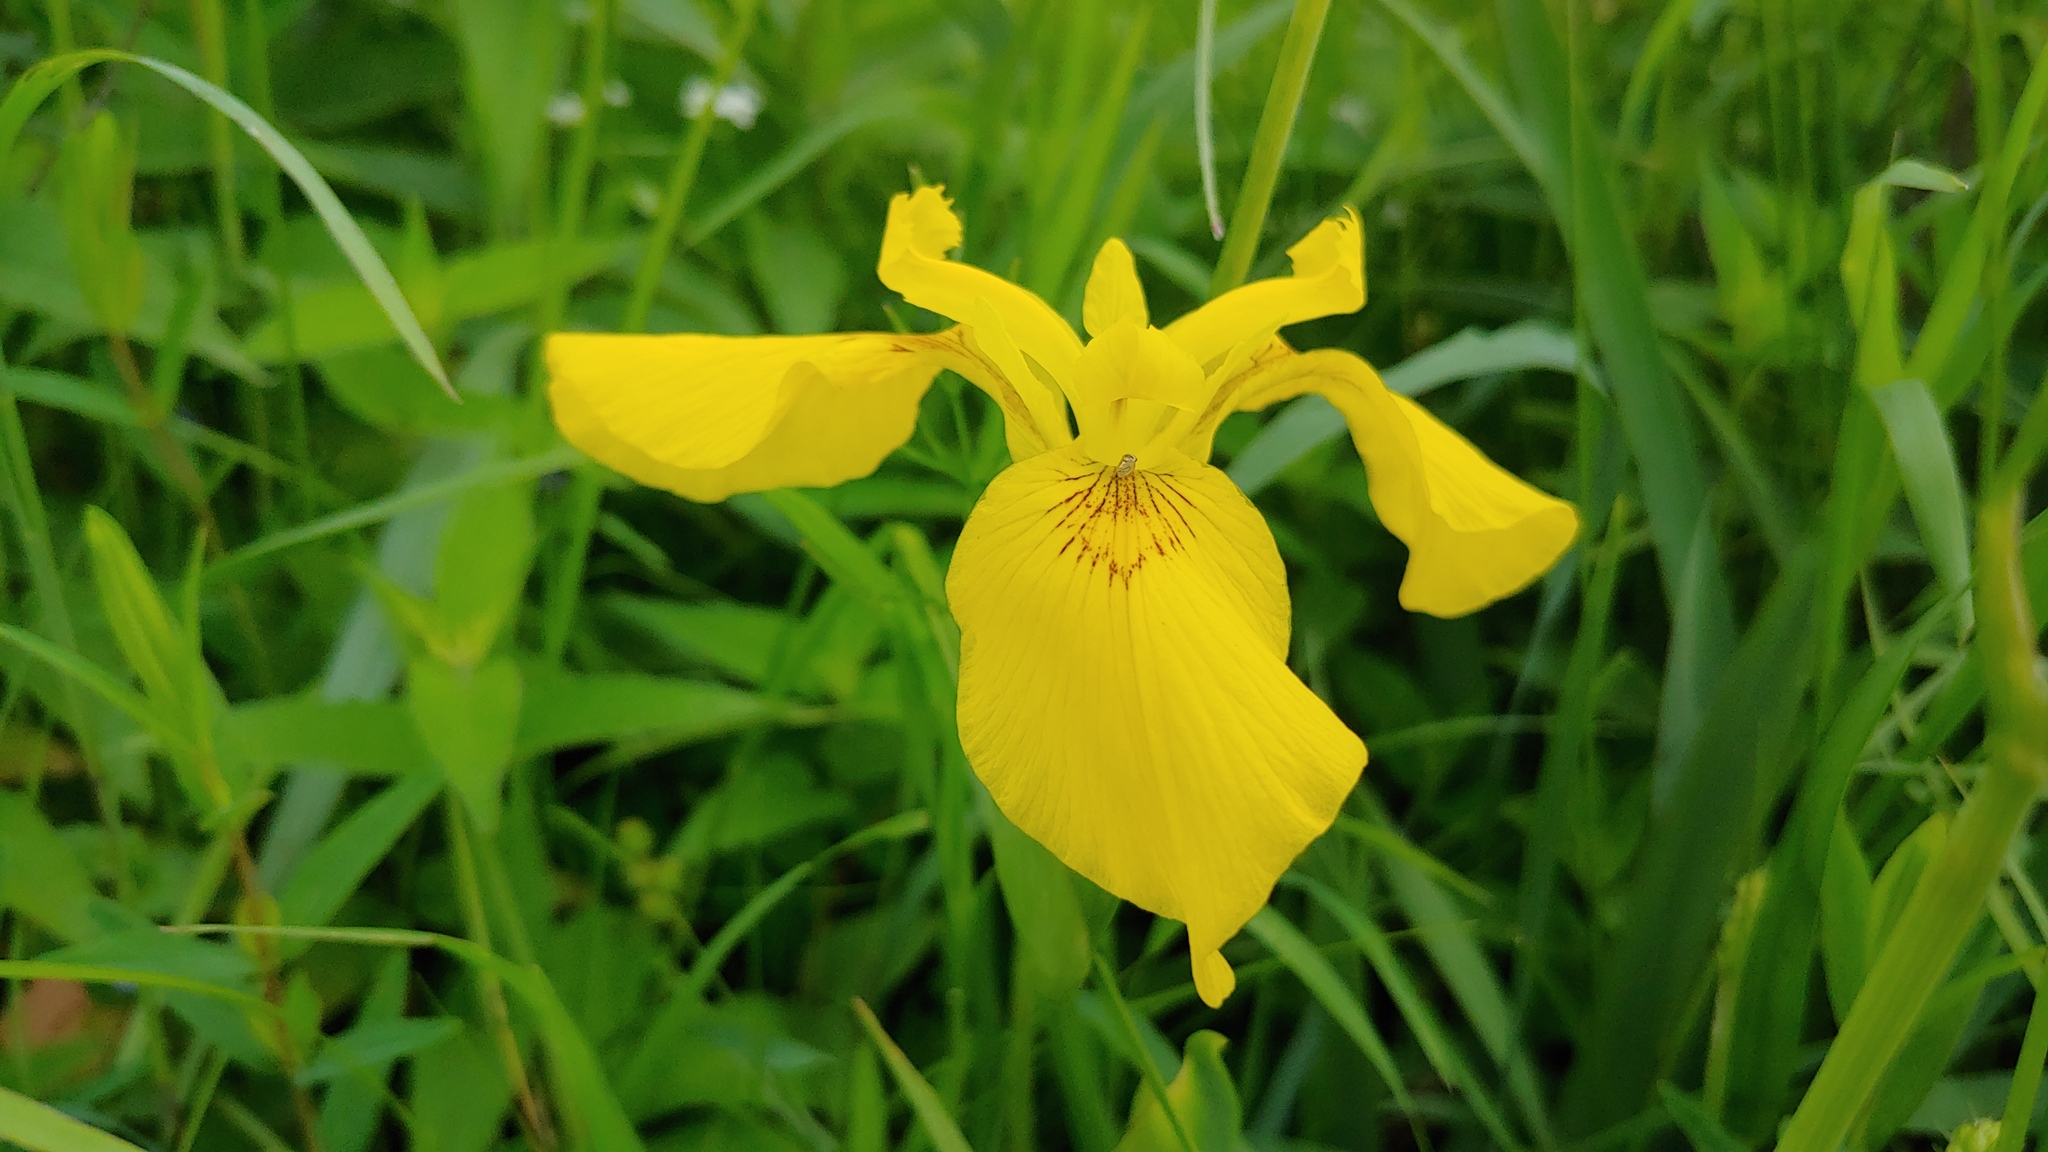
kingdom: Plantae
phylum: Tracheophyta
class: Liliopsida
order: Asparagales
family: Iridaceae
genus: Iris
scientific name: Iris pseudacorus
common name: Yellow flag
